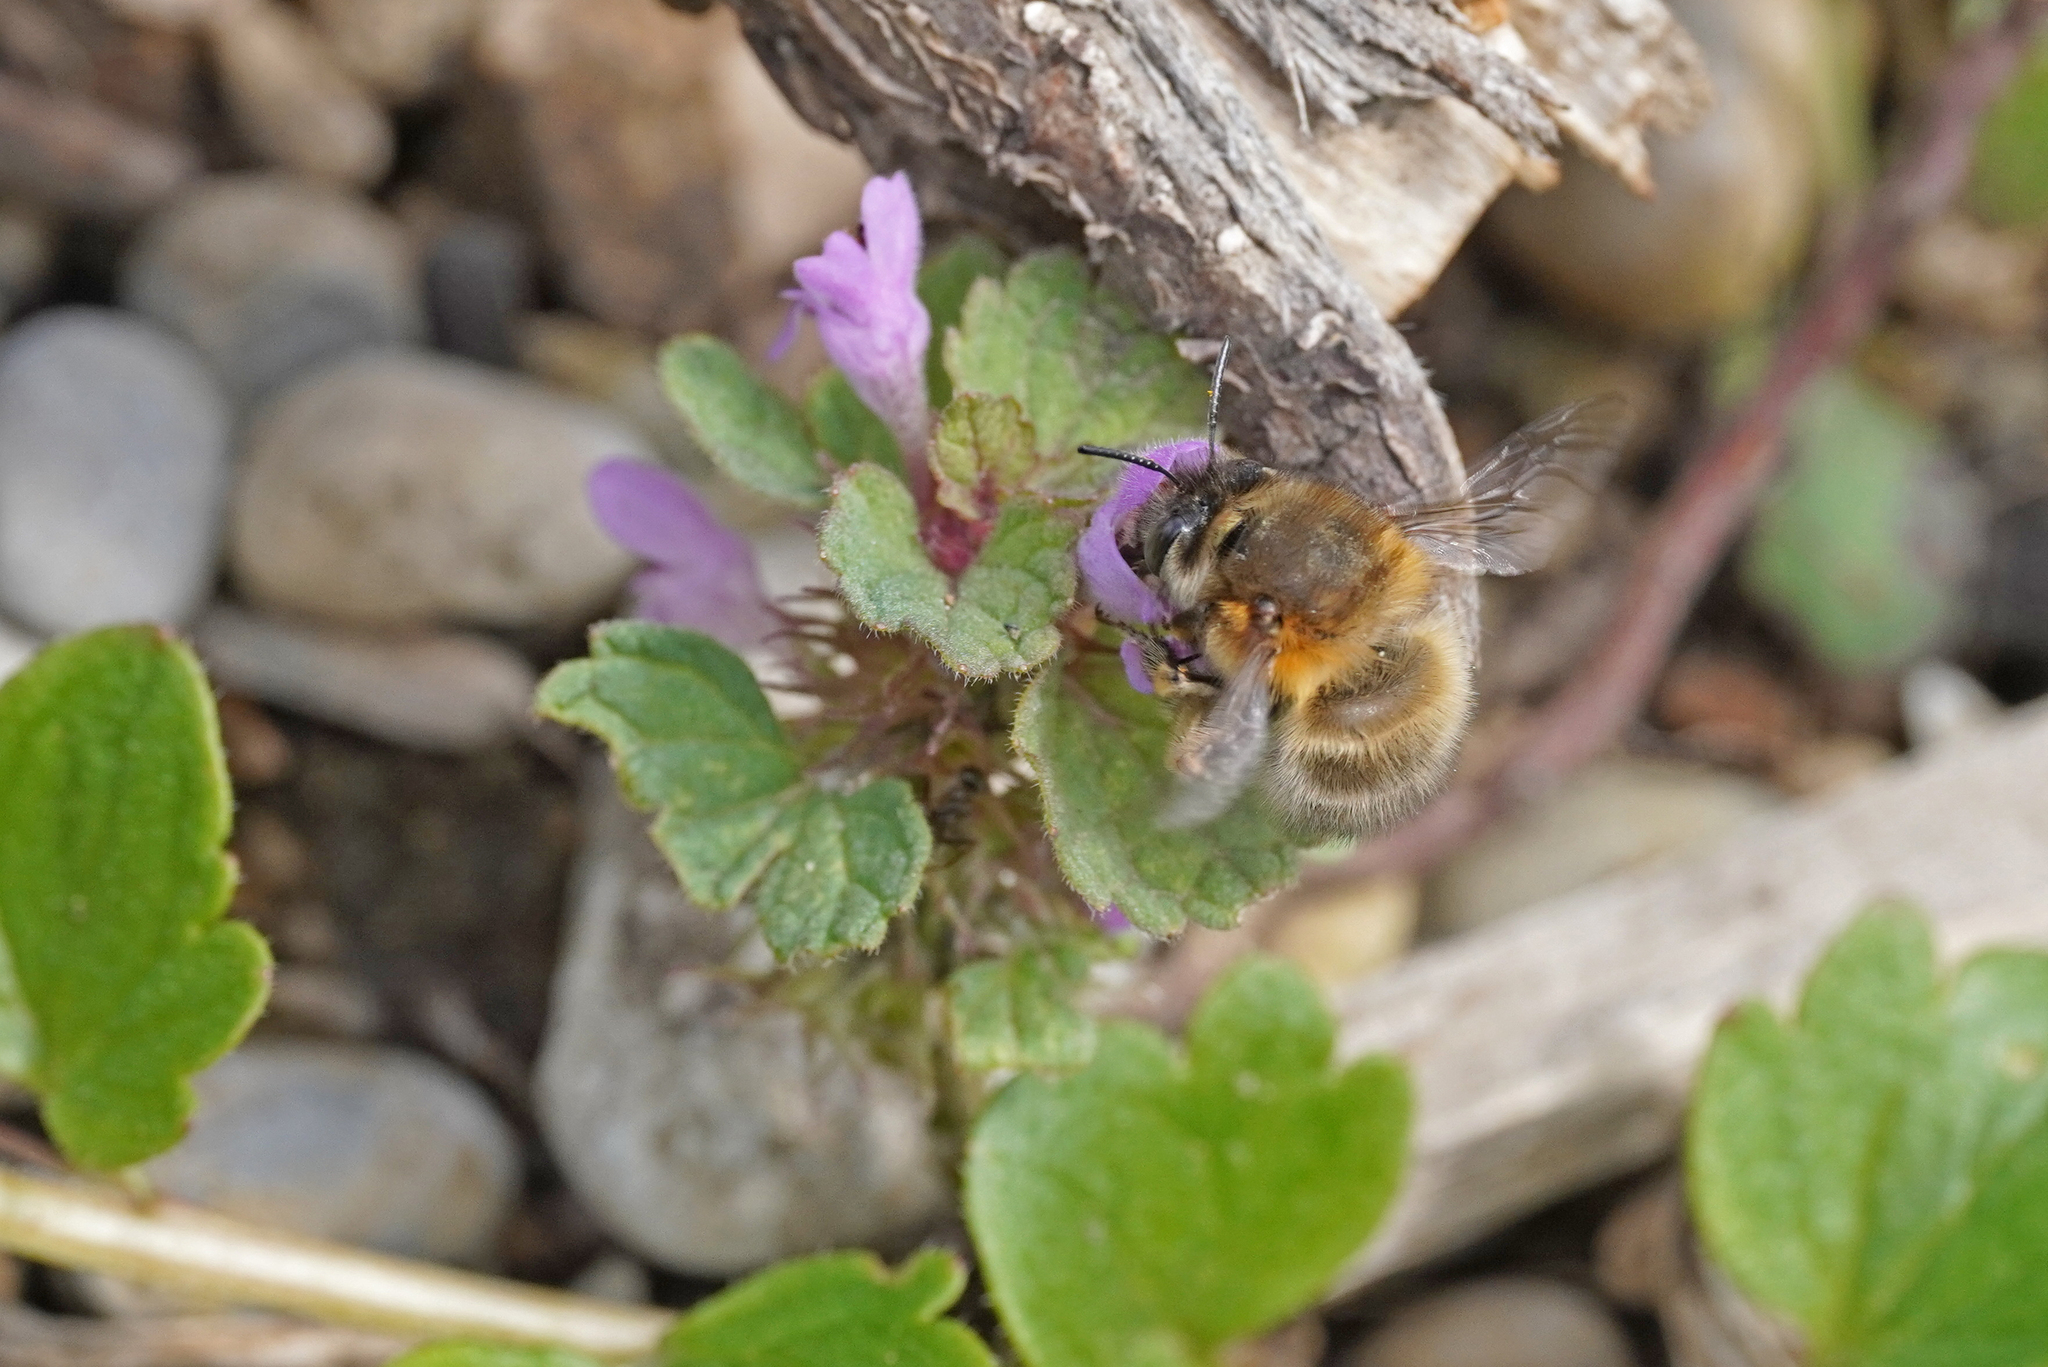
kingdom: Animalia
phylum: Arthropoda
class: Insecta
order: Hymenoptera
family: Apidae
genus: Anthophora
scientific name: Anthophora plumipes
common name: Hairy-footed flower bee
